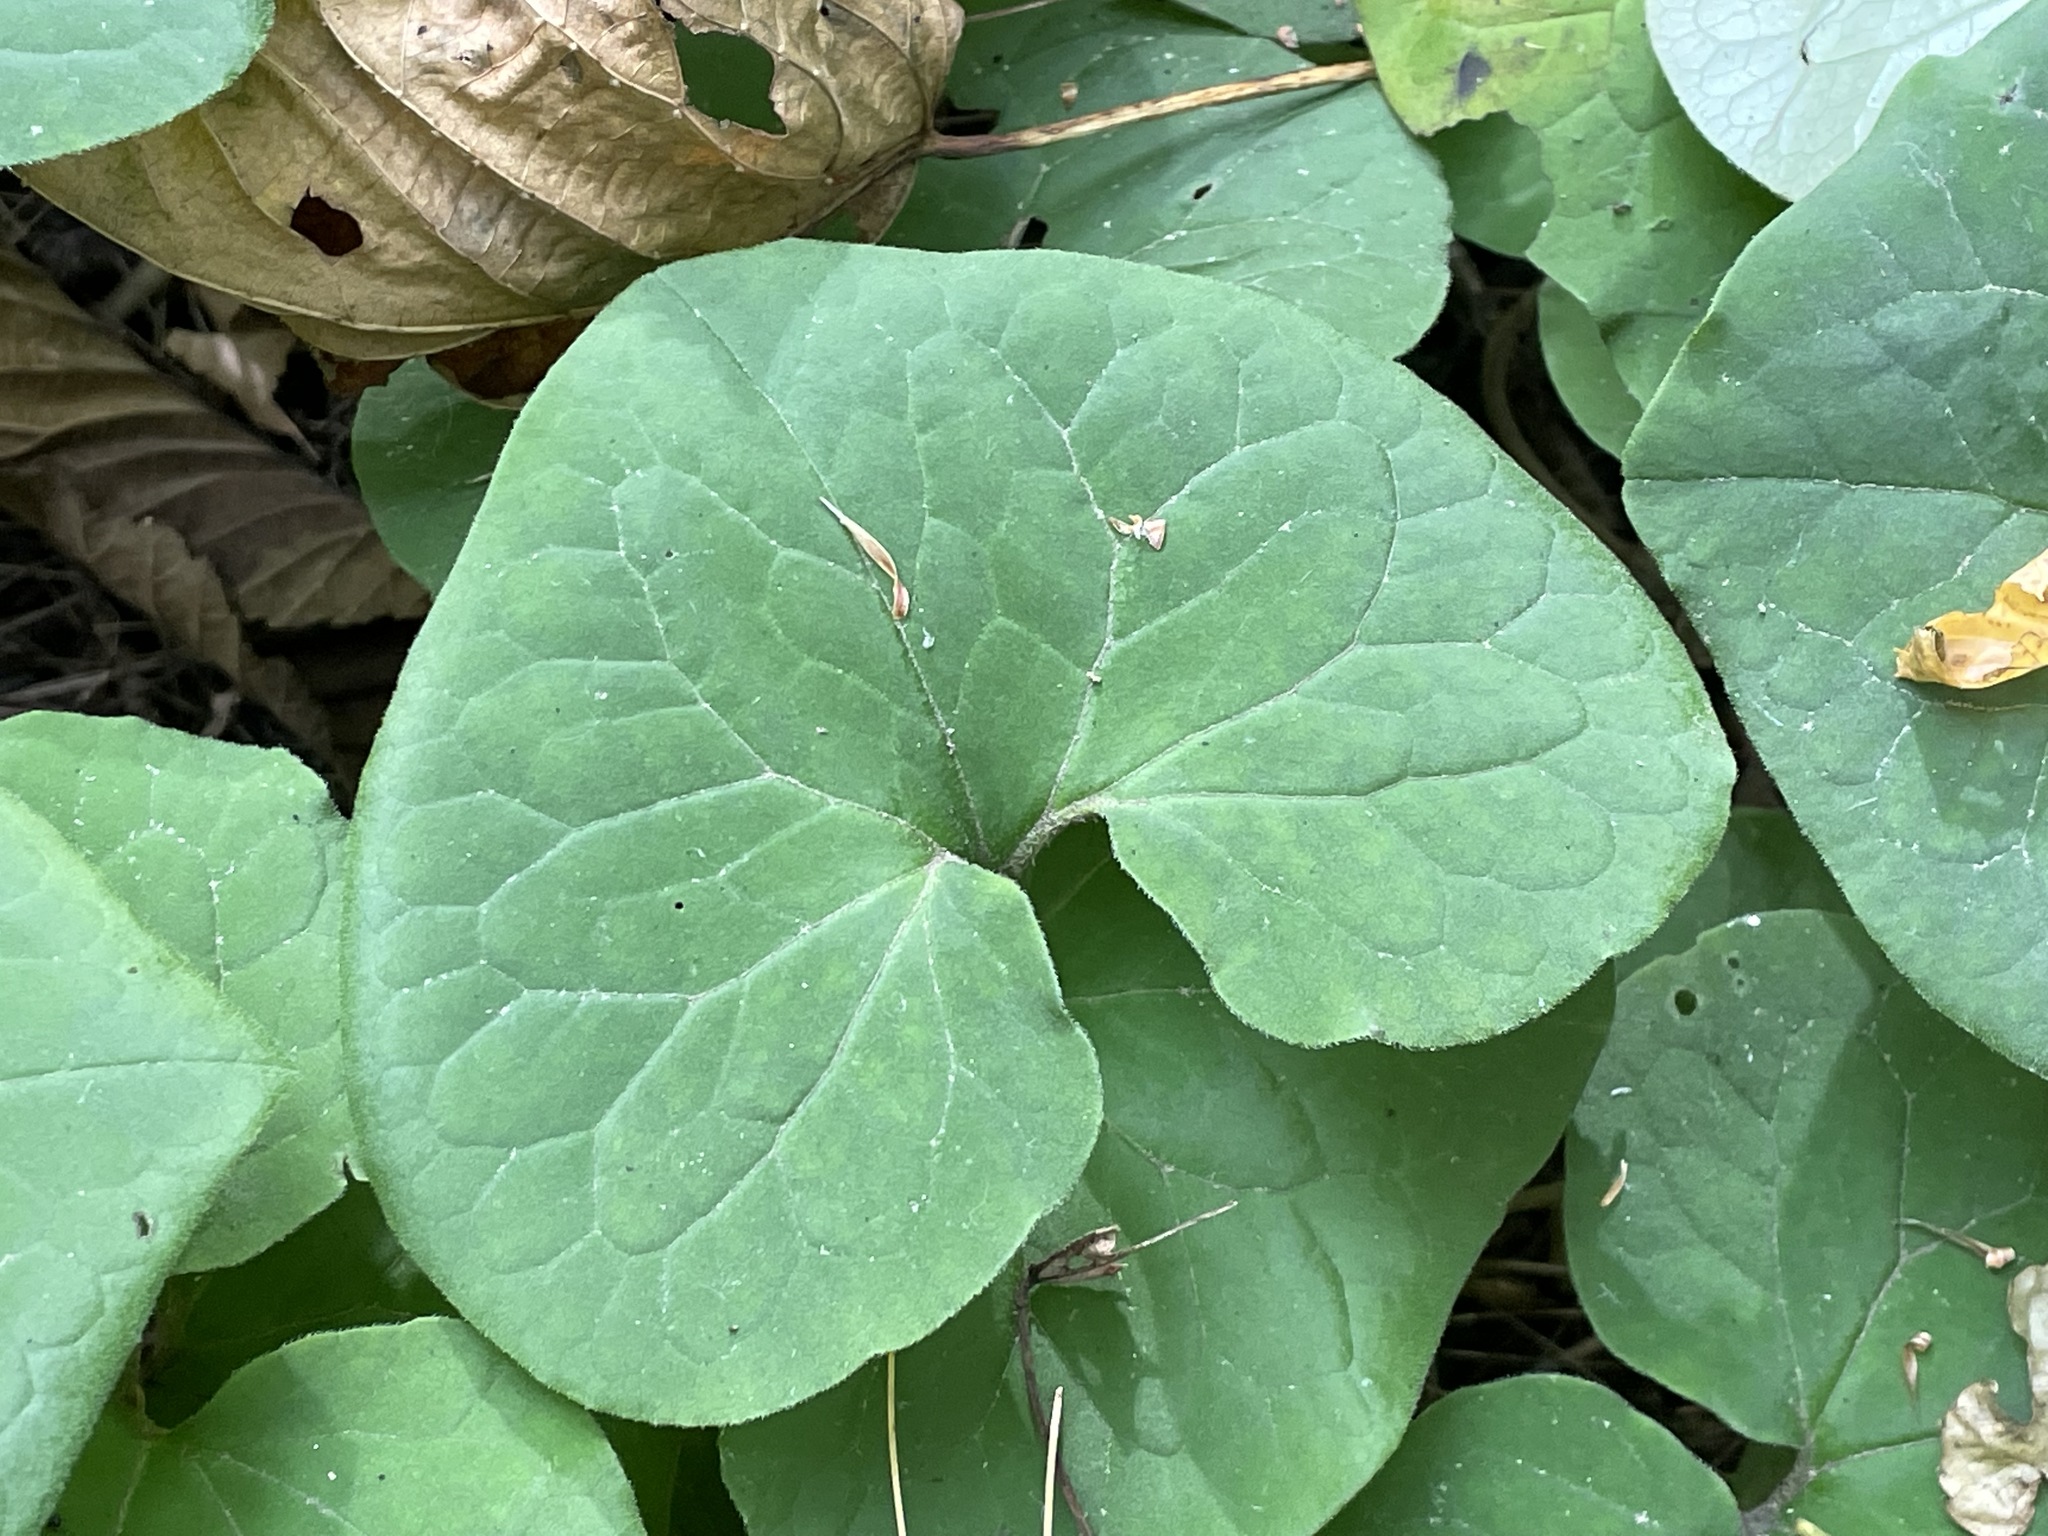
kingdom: Plantae
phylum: Tracheophyta
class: Magnoliopsida
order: Piperales
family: Aristolochiaceae
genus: Asarum
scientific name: Asarum canadense
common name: Wild ginger
